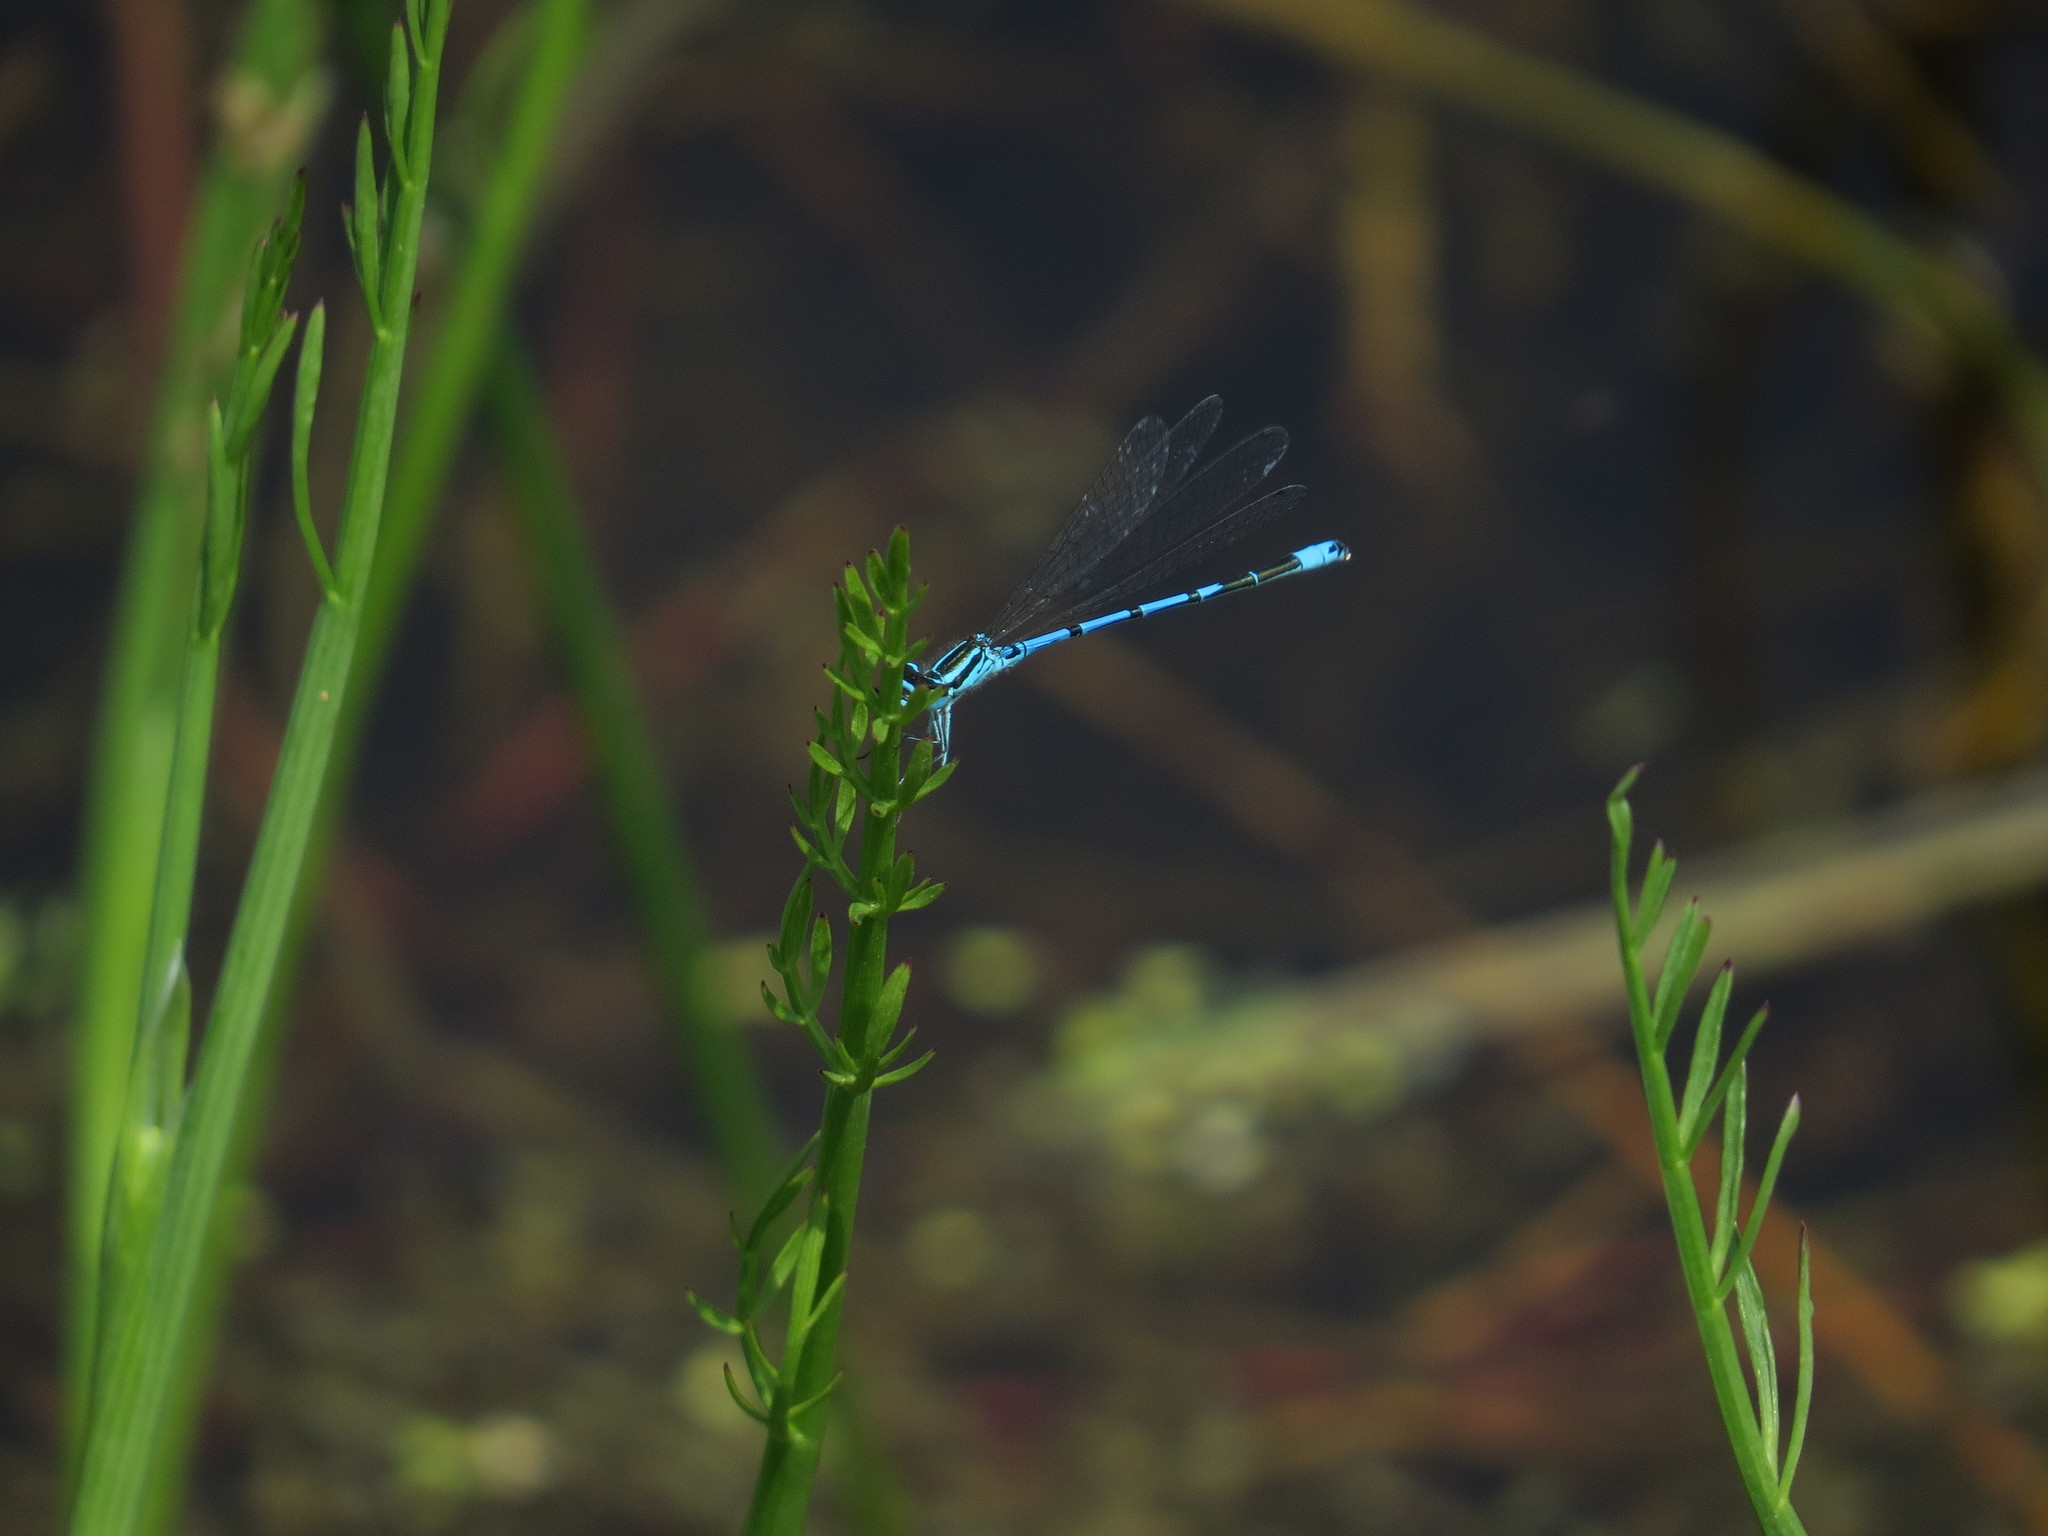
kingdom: Animalia
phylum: Arthropoda
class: Insecta
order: Odonata
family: Coenagrionidae
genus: Coenagrion
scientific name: Coenagrion puella
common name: Azure damselfly
